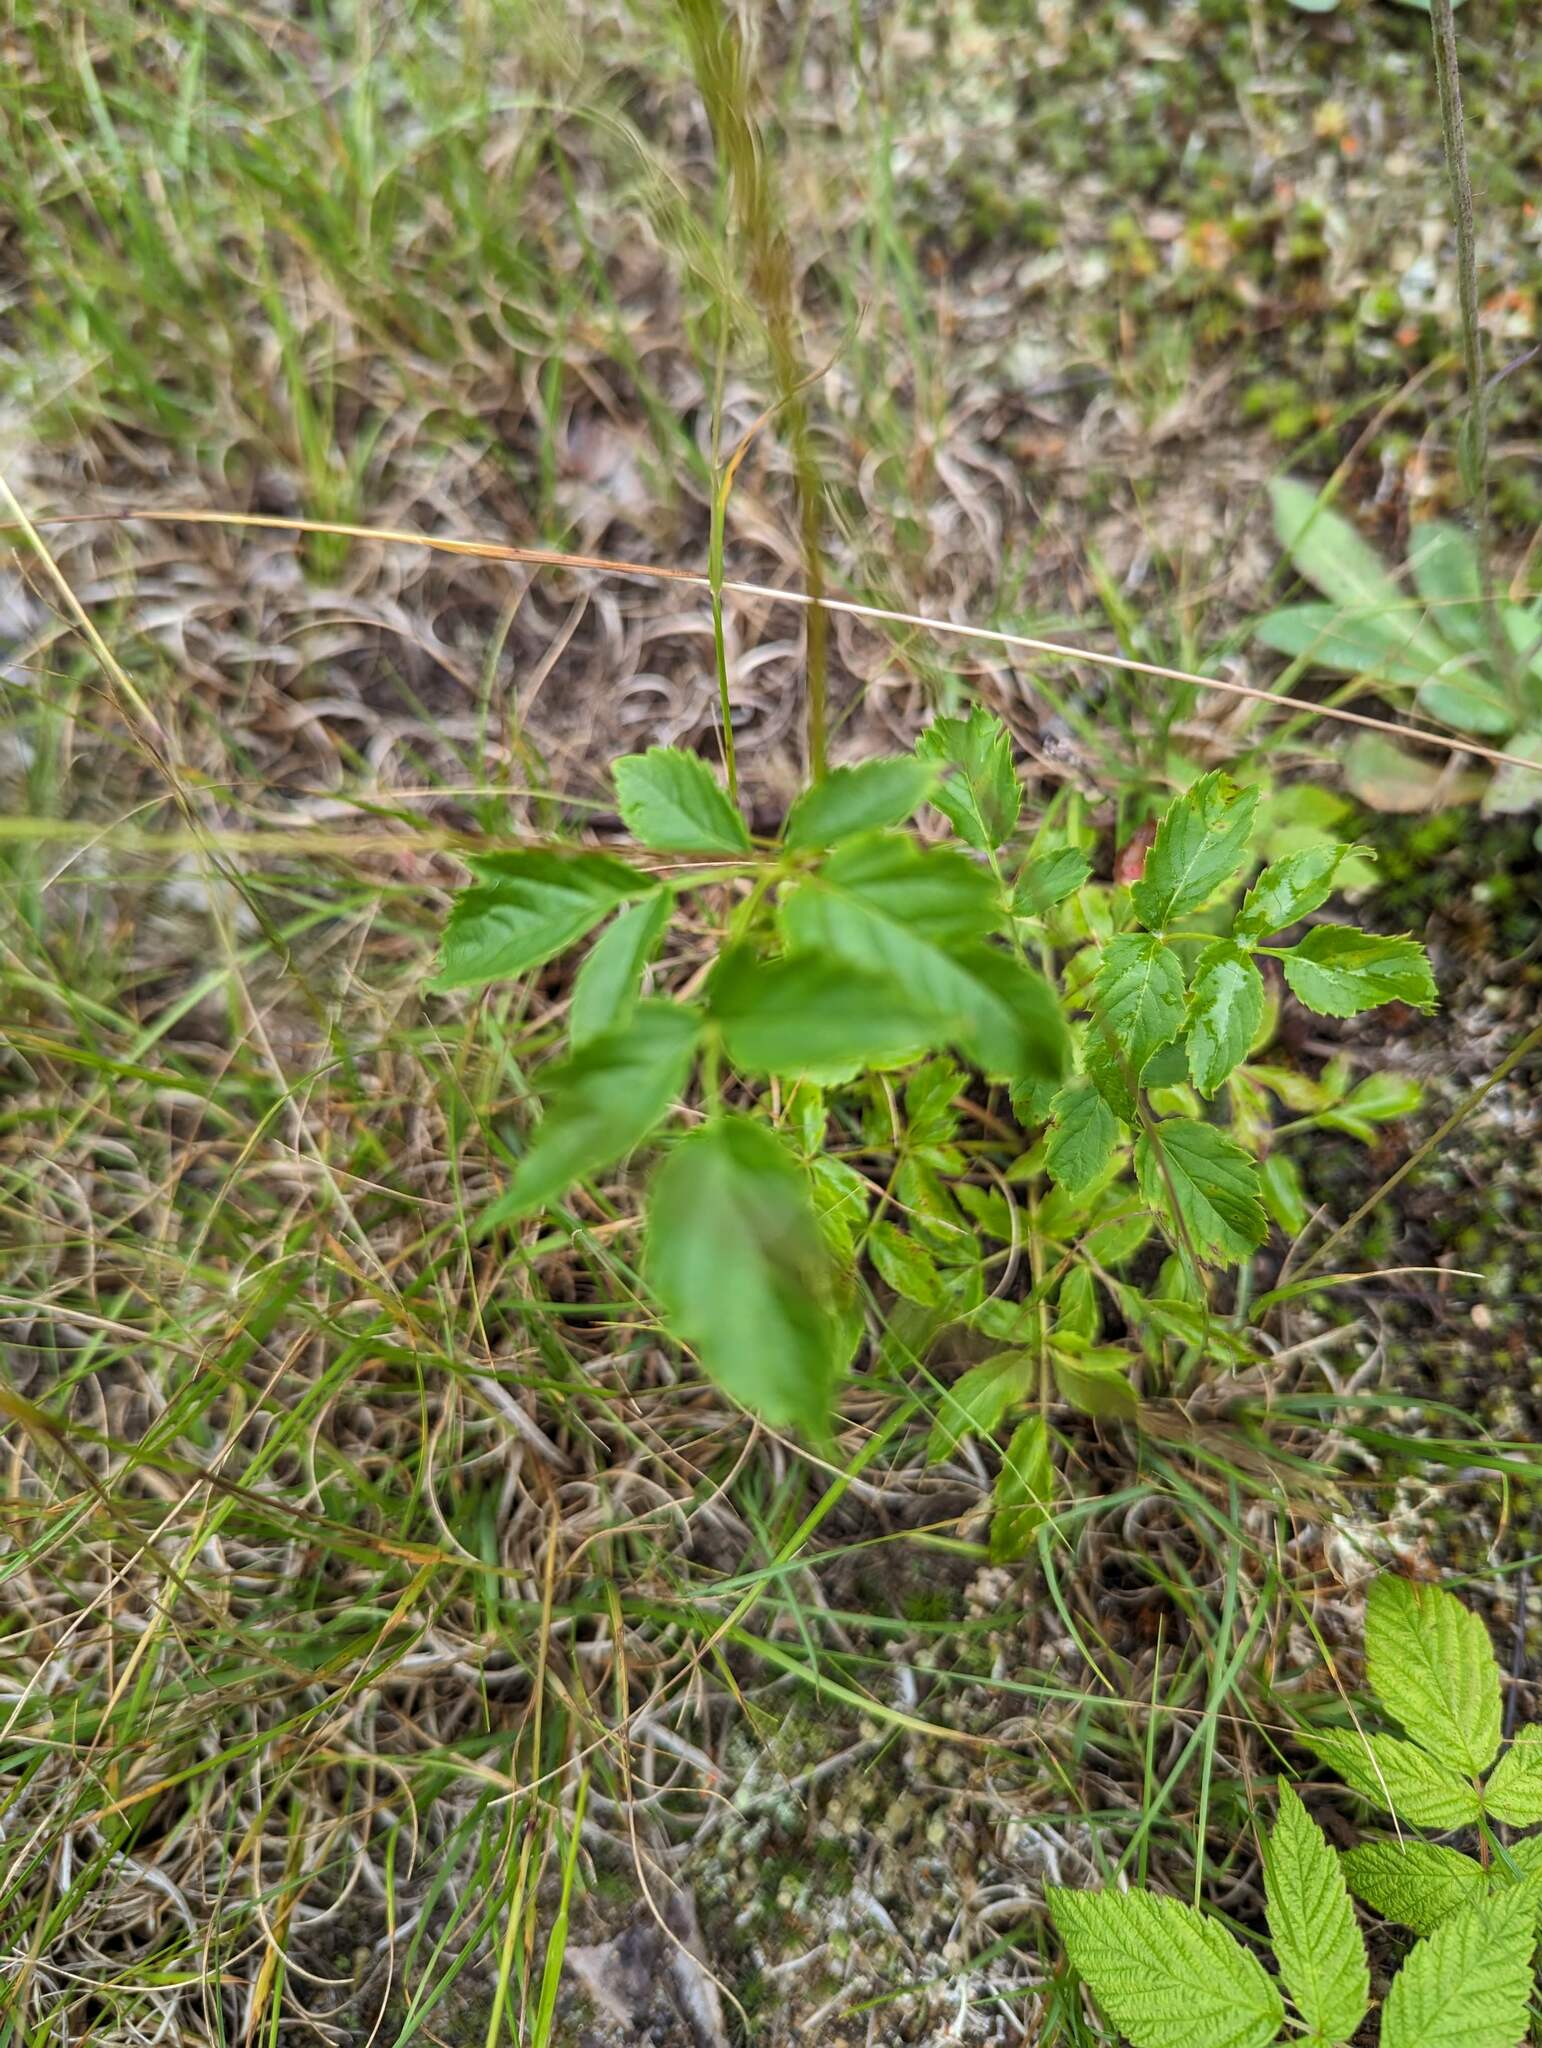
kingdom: Plantae
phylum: Tracheophyta
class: Magnoliopsida
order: Apiales
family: Araliaceae
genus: Aralia
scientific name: Aralia hispida
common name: Bristly sarsaparilla
